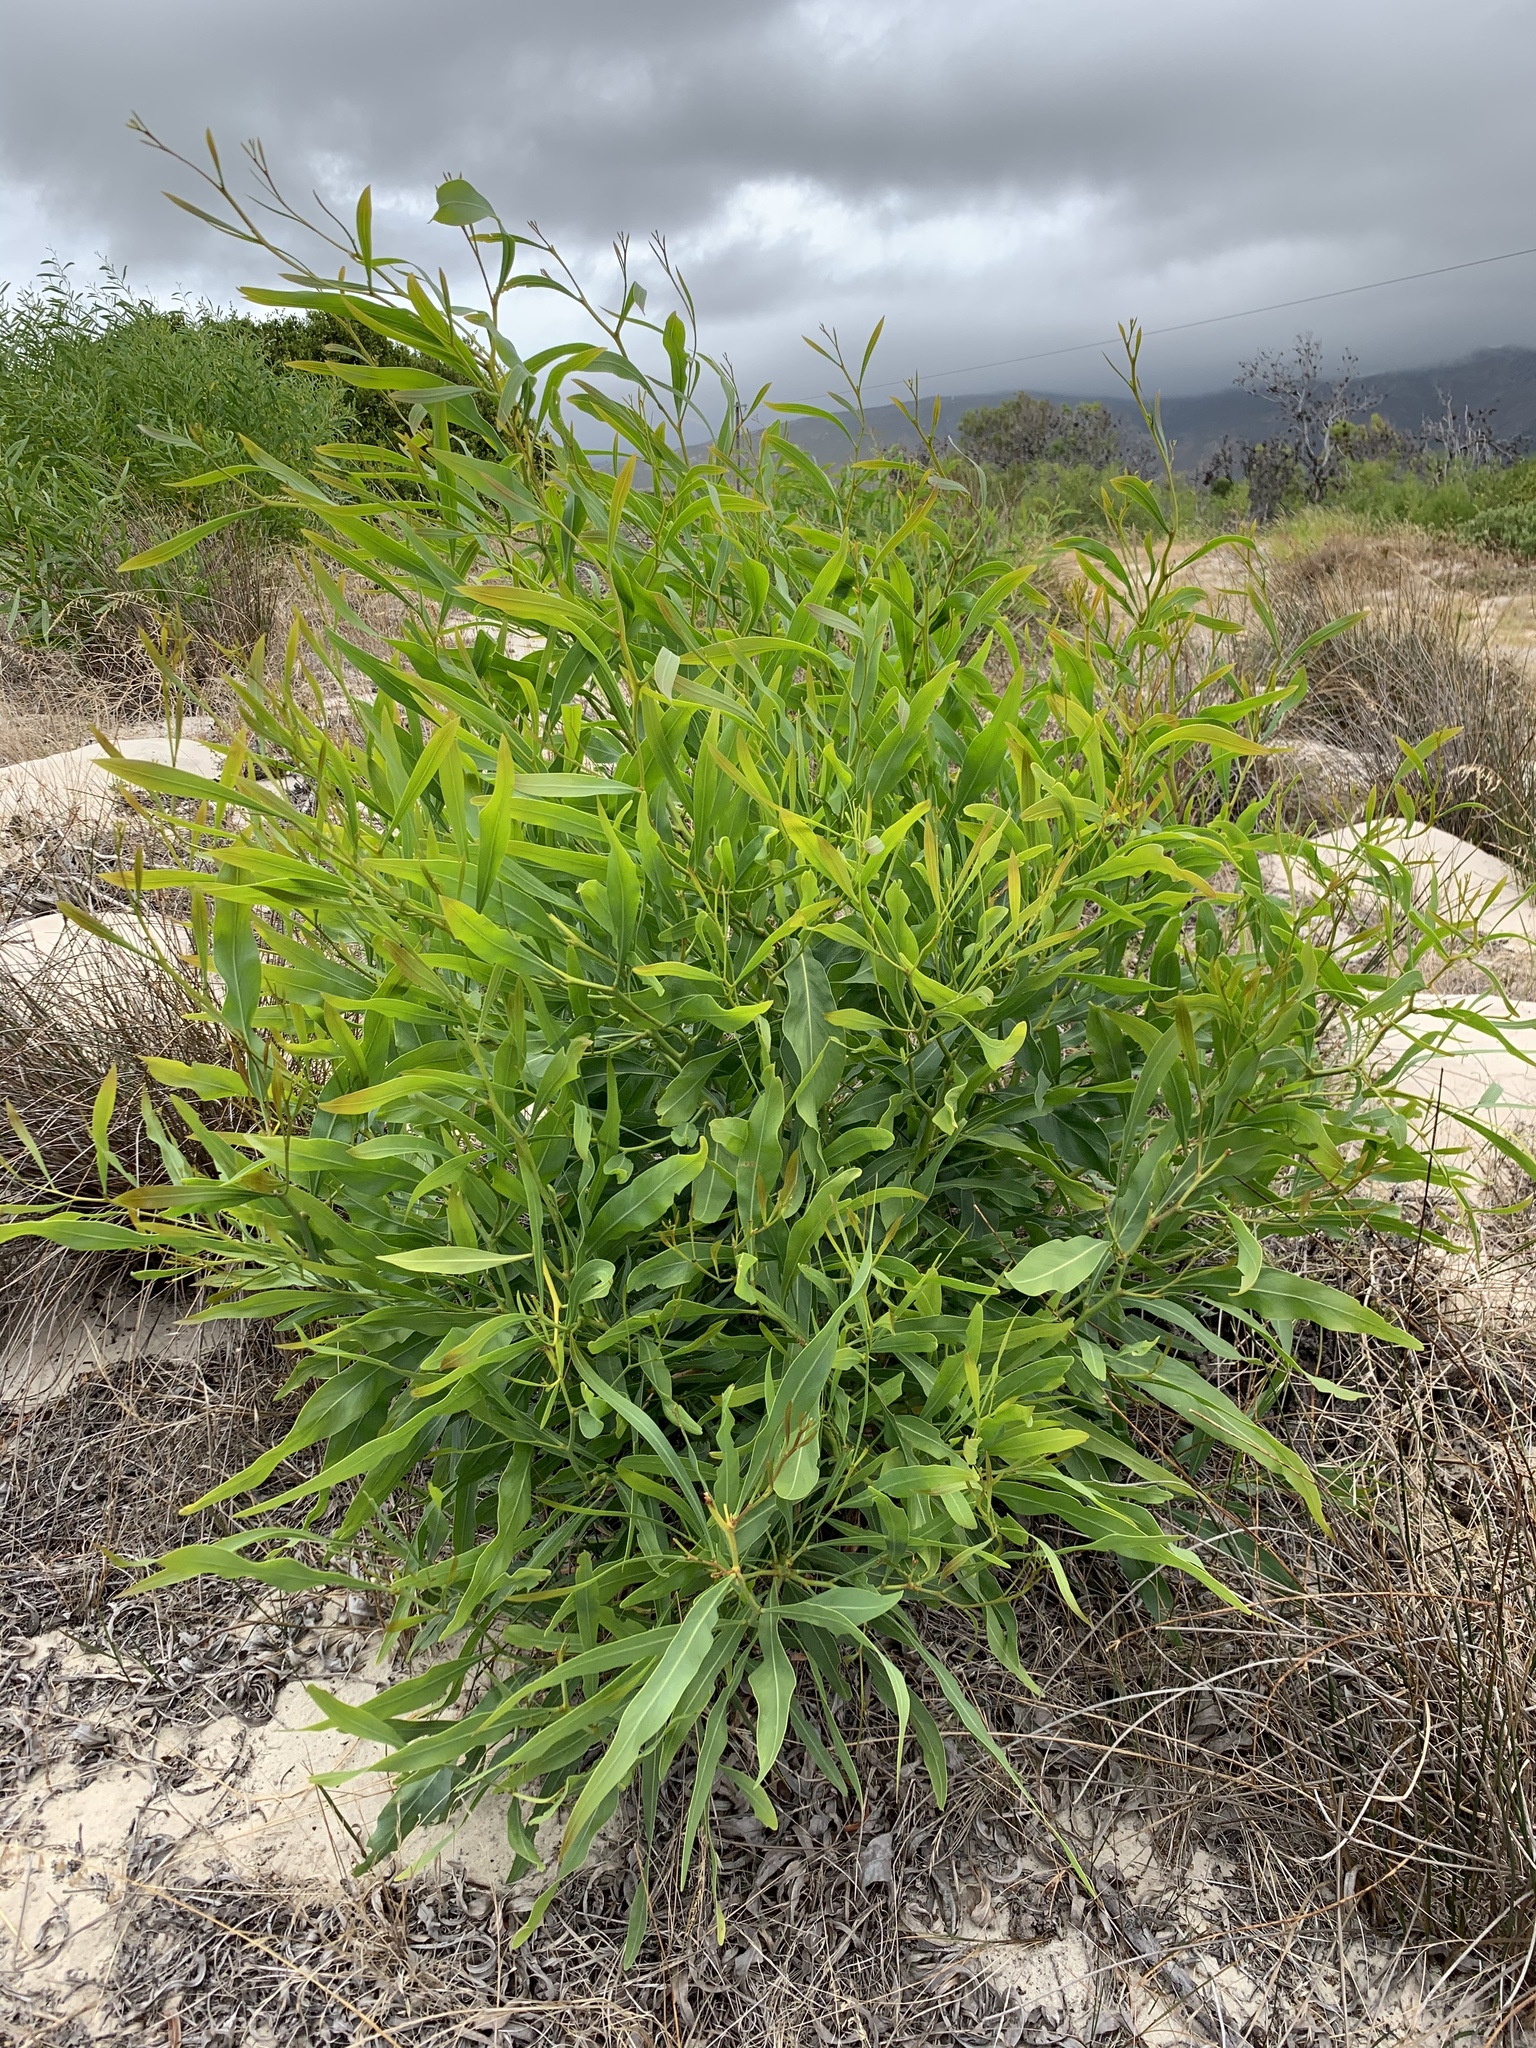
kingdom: Plantae
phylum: Tracheophyta
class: Magnoliopsida
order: Fabales
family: Fabaceae
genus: Acacia
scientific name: Acacia saligna
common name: Orange wattle
